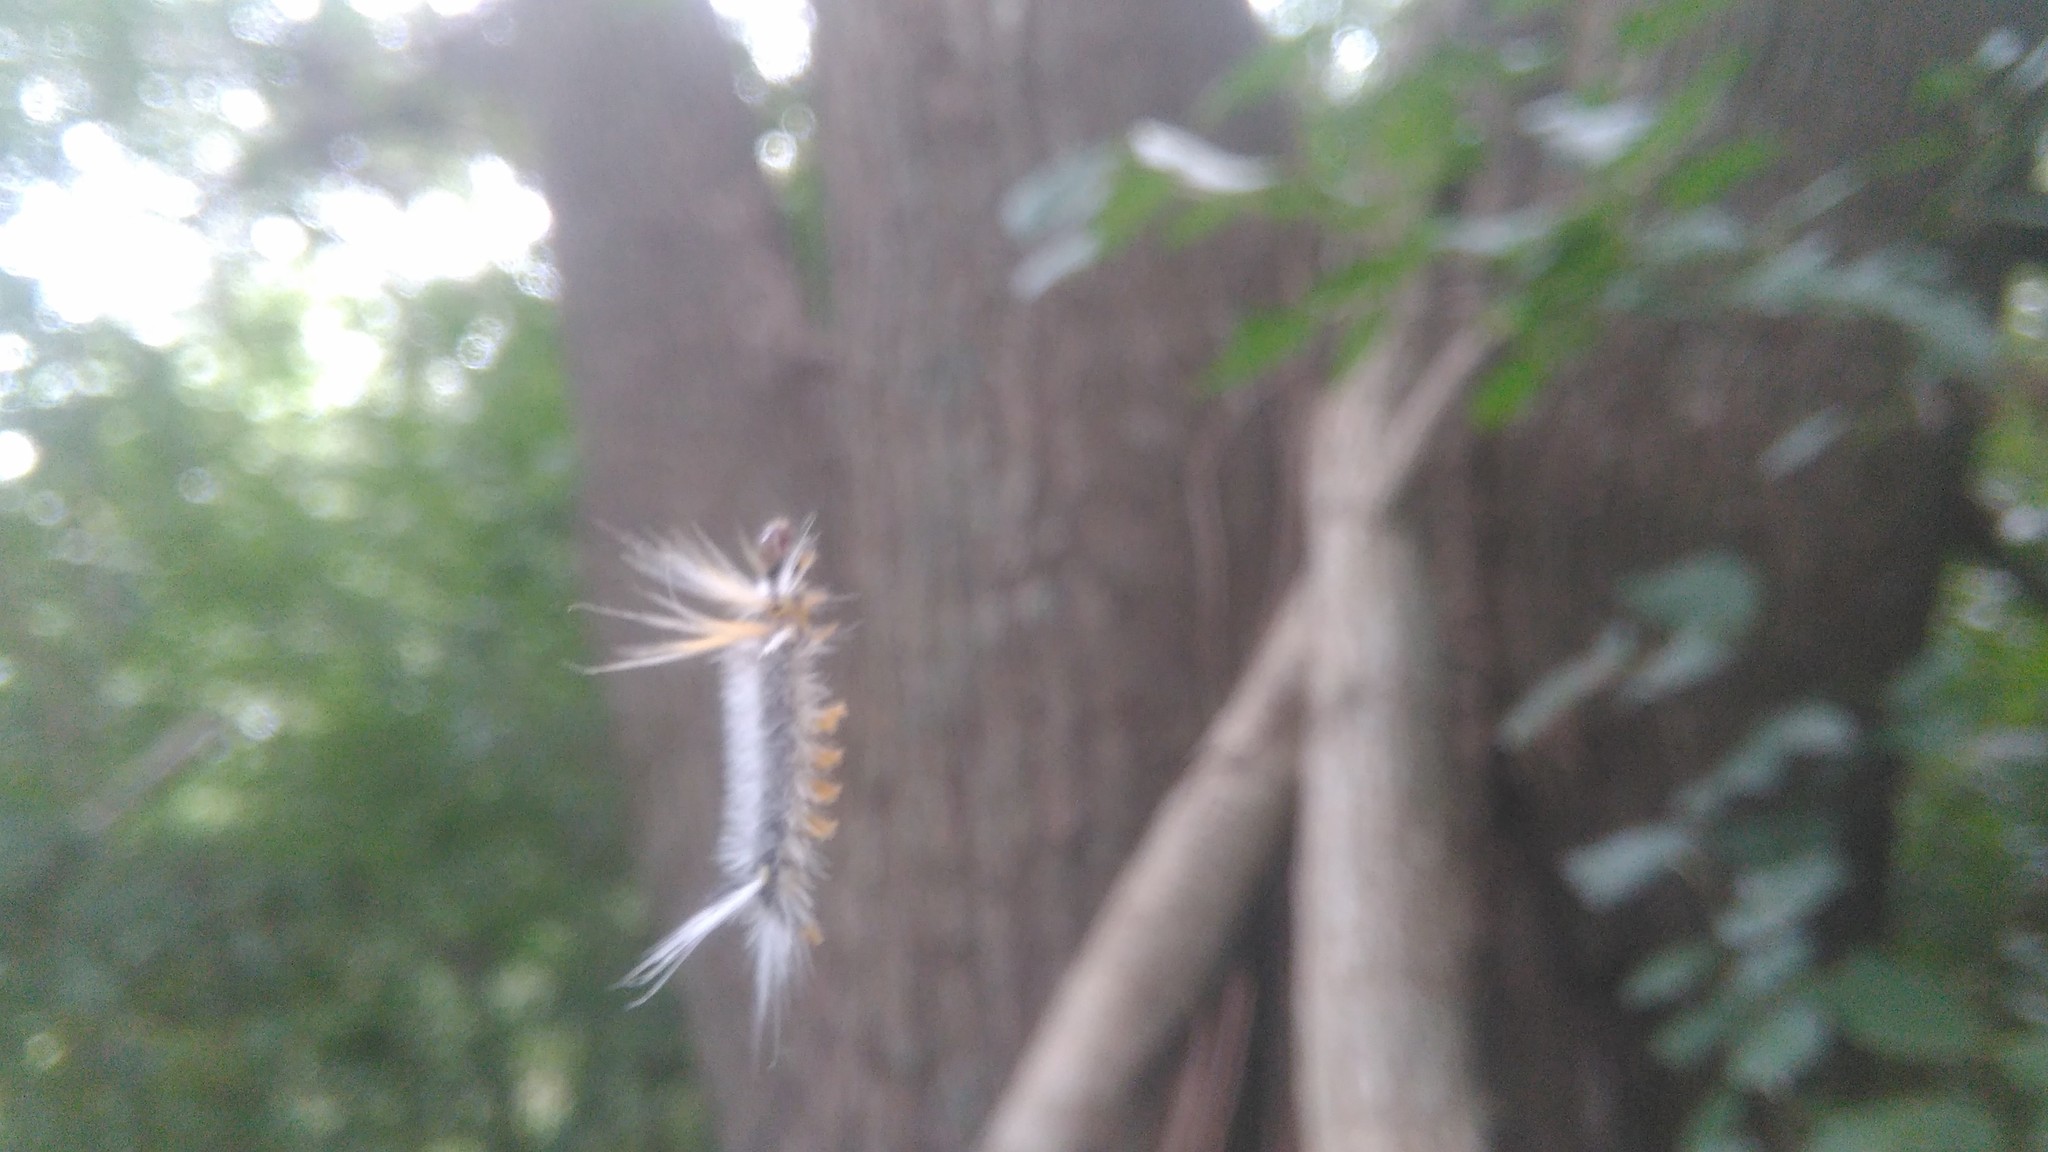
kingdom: Animalia
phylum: Arthropoda
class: Insecta
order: Lepidoptera
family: Erebidae
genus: Halysidota
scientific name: Halysidota ruscheweyhi
